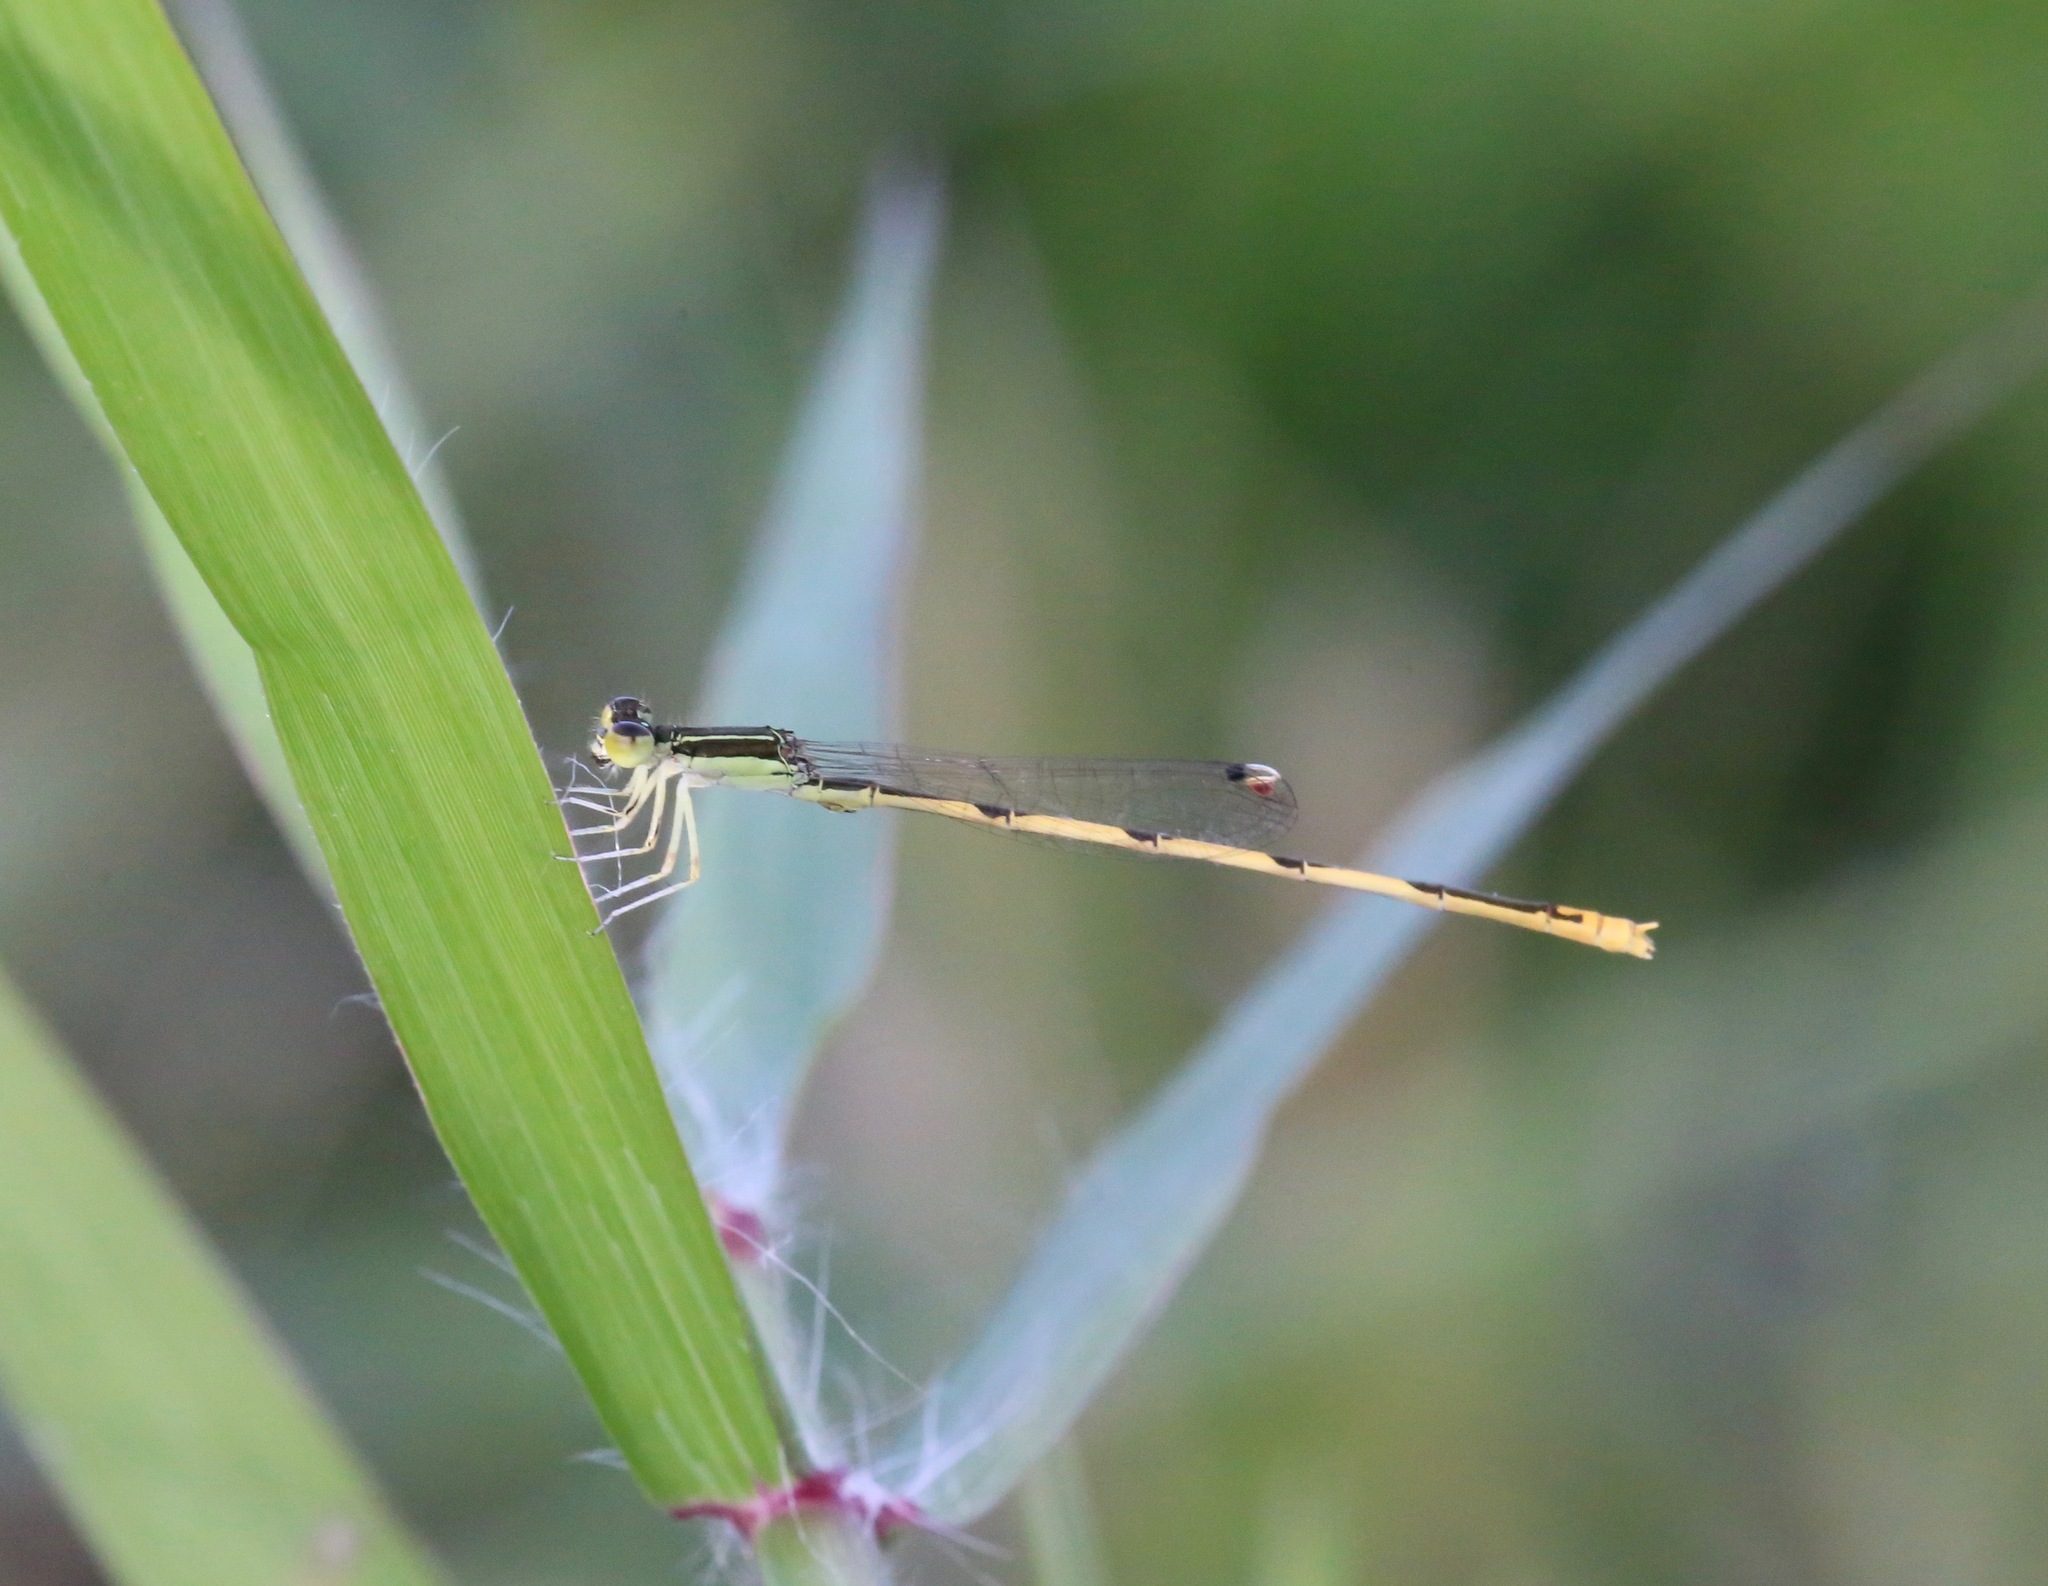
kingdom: Animalia
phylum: Arthropoda
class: Insecta
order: Odonata
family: Coenagrionidae
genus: Ischnura
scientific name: Ischnura hastata
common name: Citrine forktail
